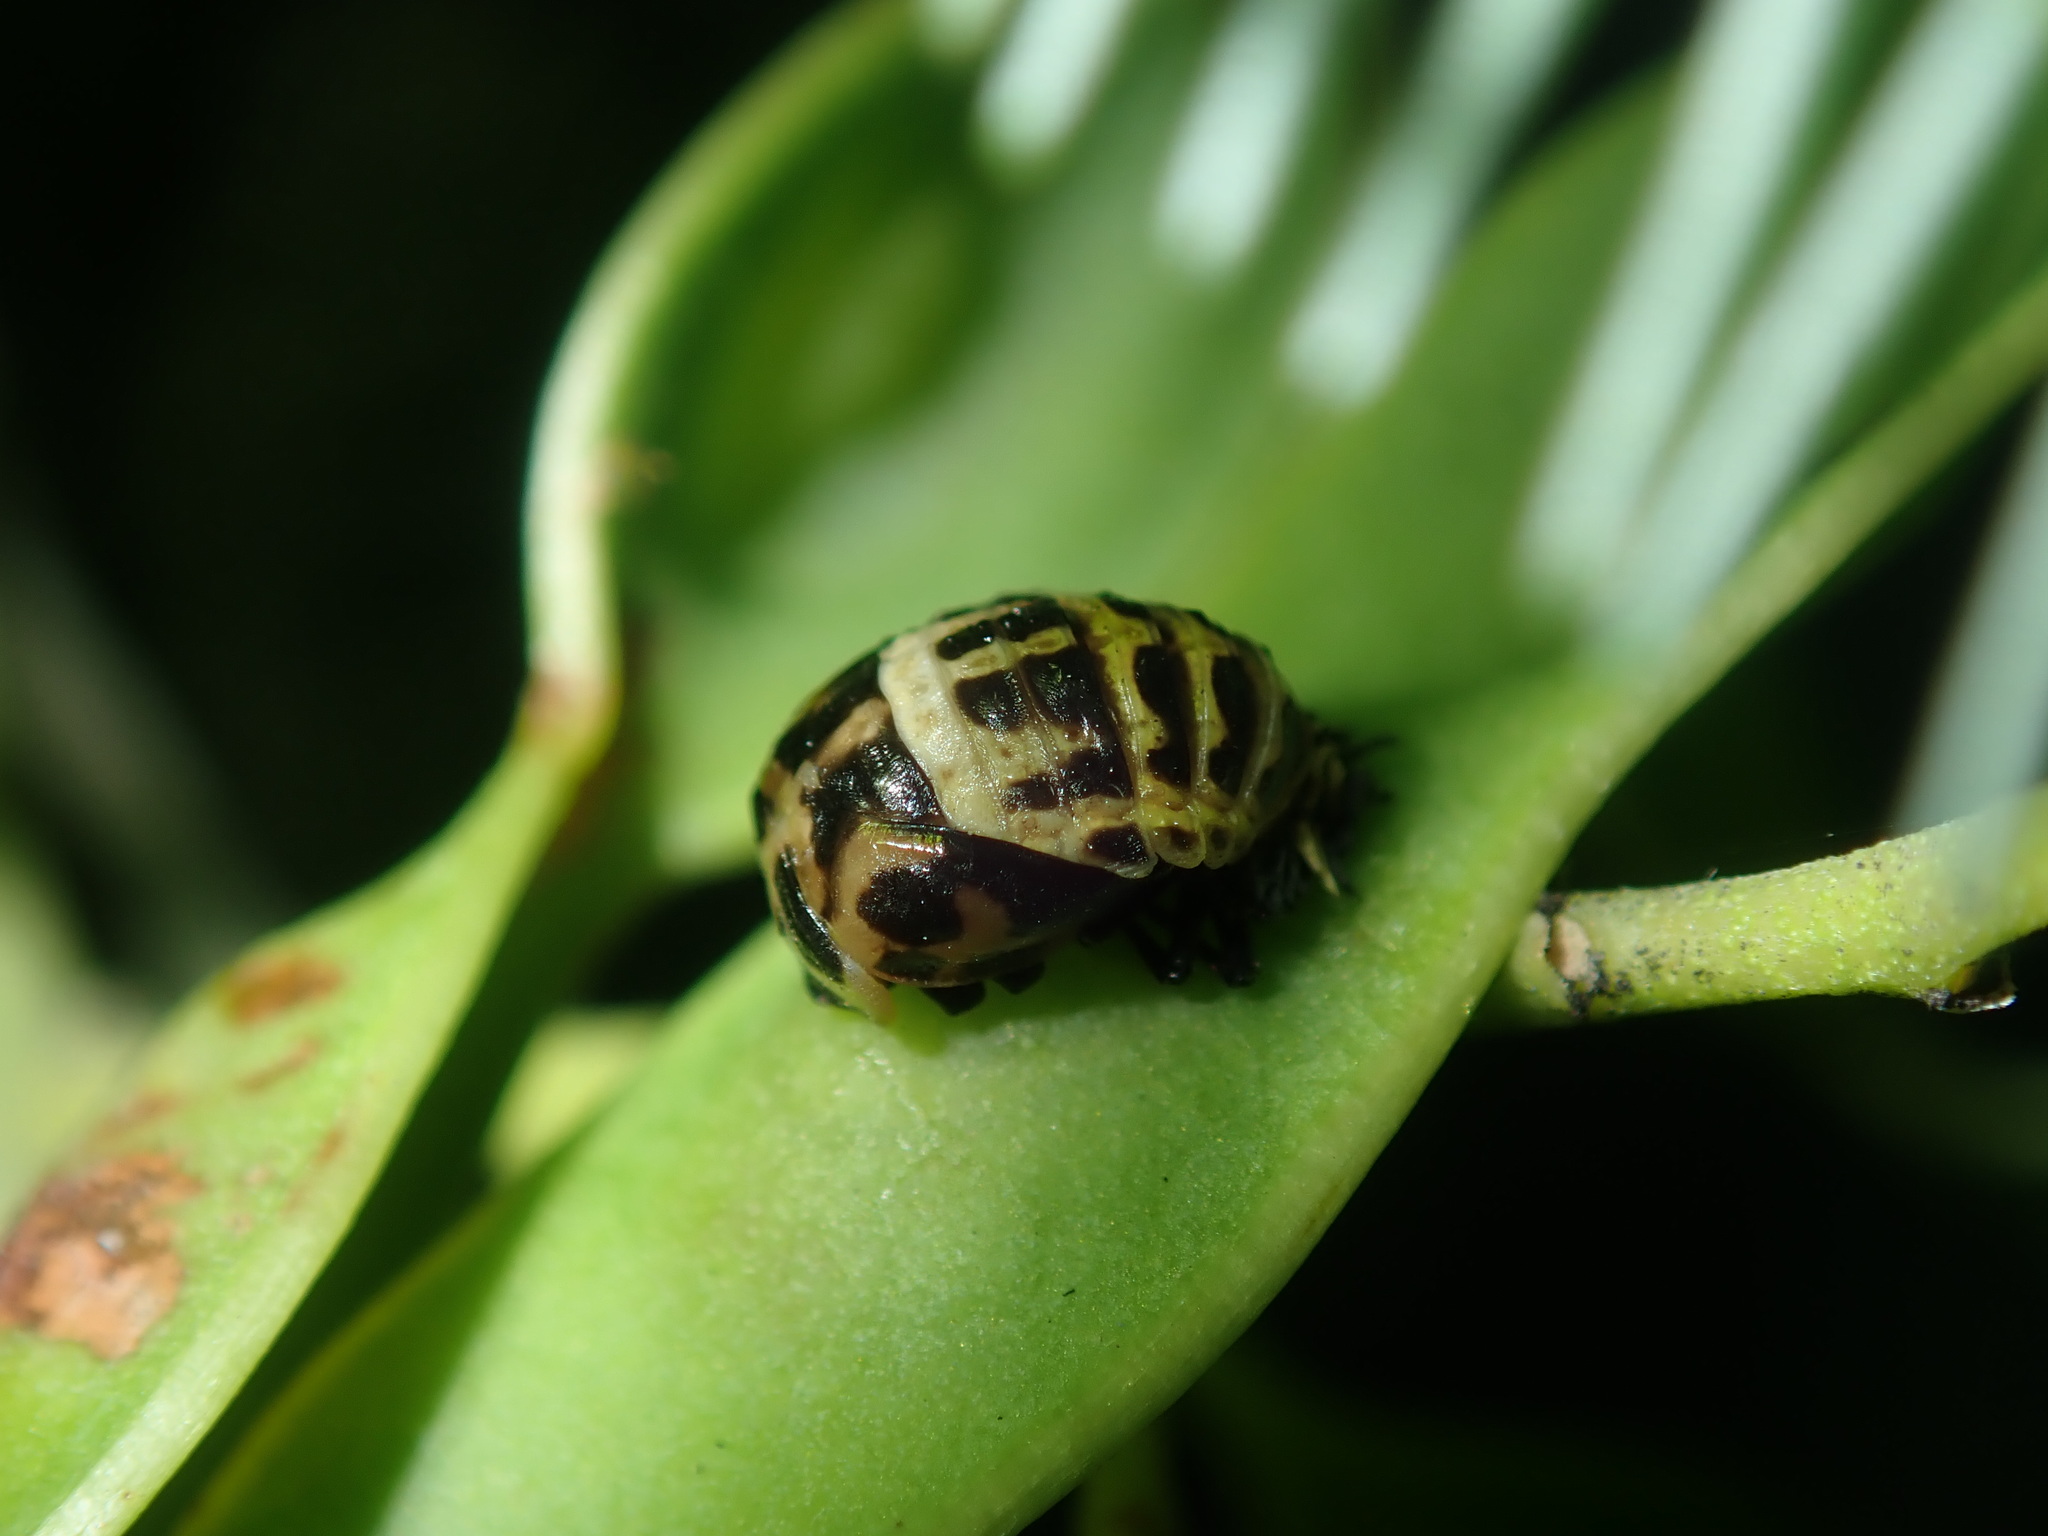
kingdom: Animalia
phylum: Arthropoda
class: Insecta
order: Coleoptera
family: Coccinellidae
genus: Harmonia
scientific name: Harmonia conformis
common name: Common spotted ladybird beetle
